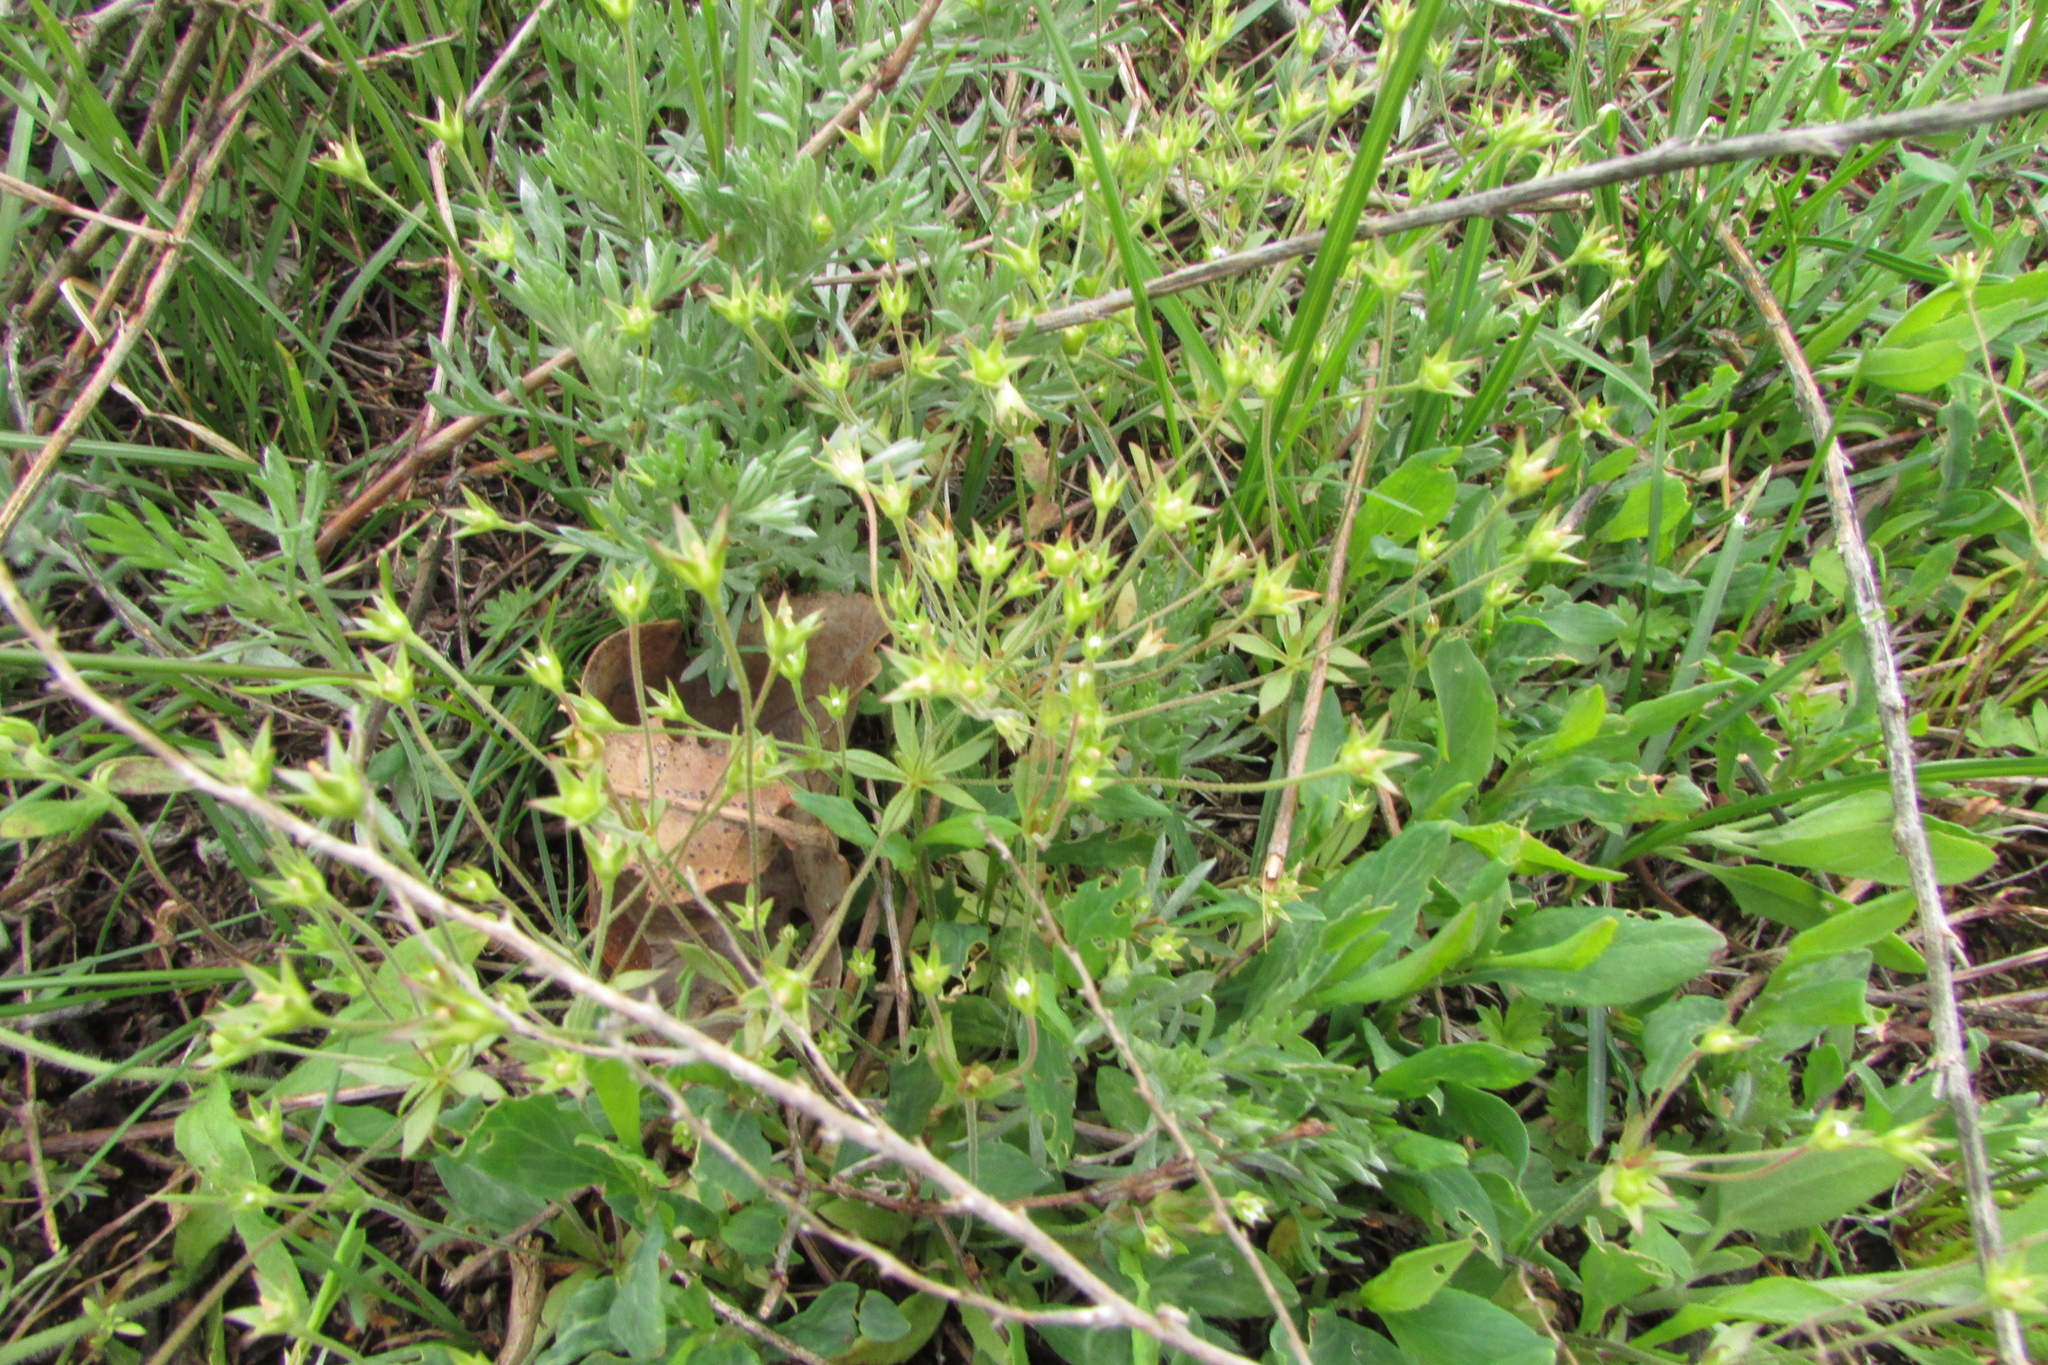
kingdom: Plantae
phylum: Tracheophyta
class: Magnoliopsida
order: Ericales
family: Primulaceae
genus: Androsace
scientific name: Androsace elongata
